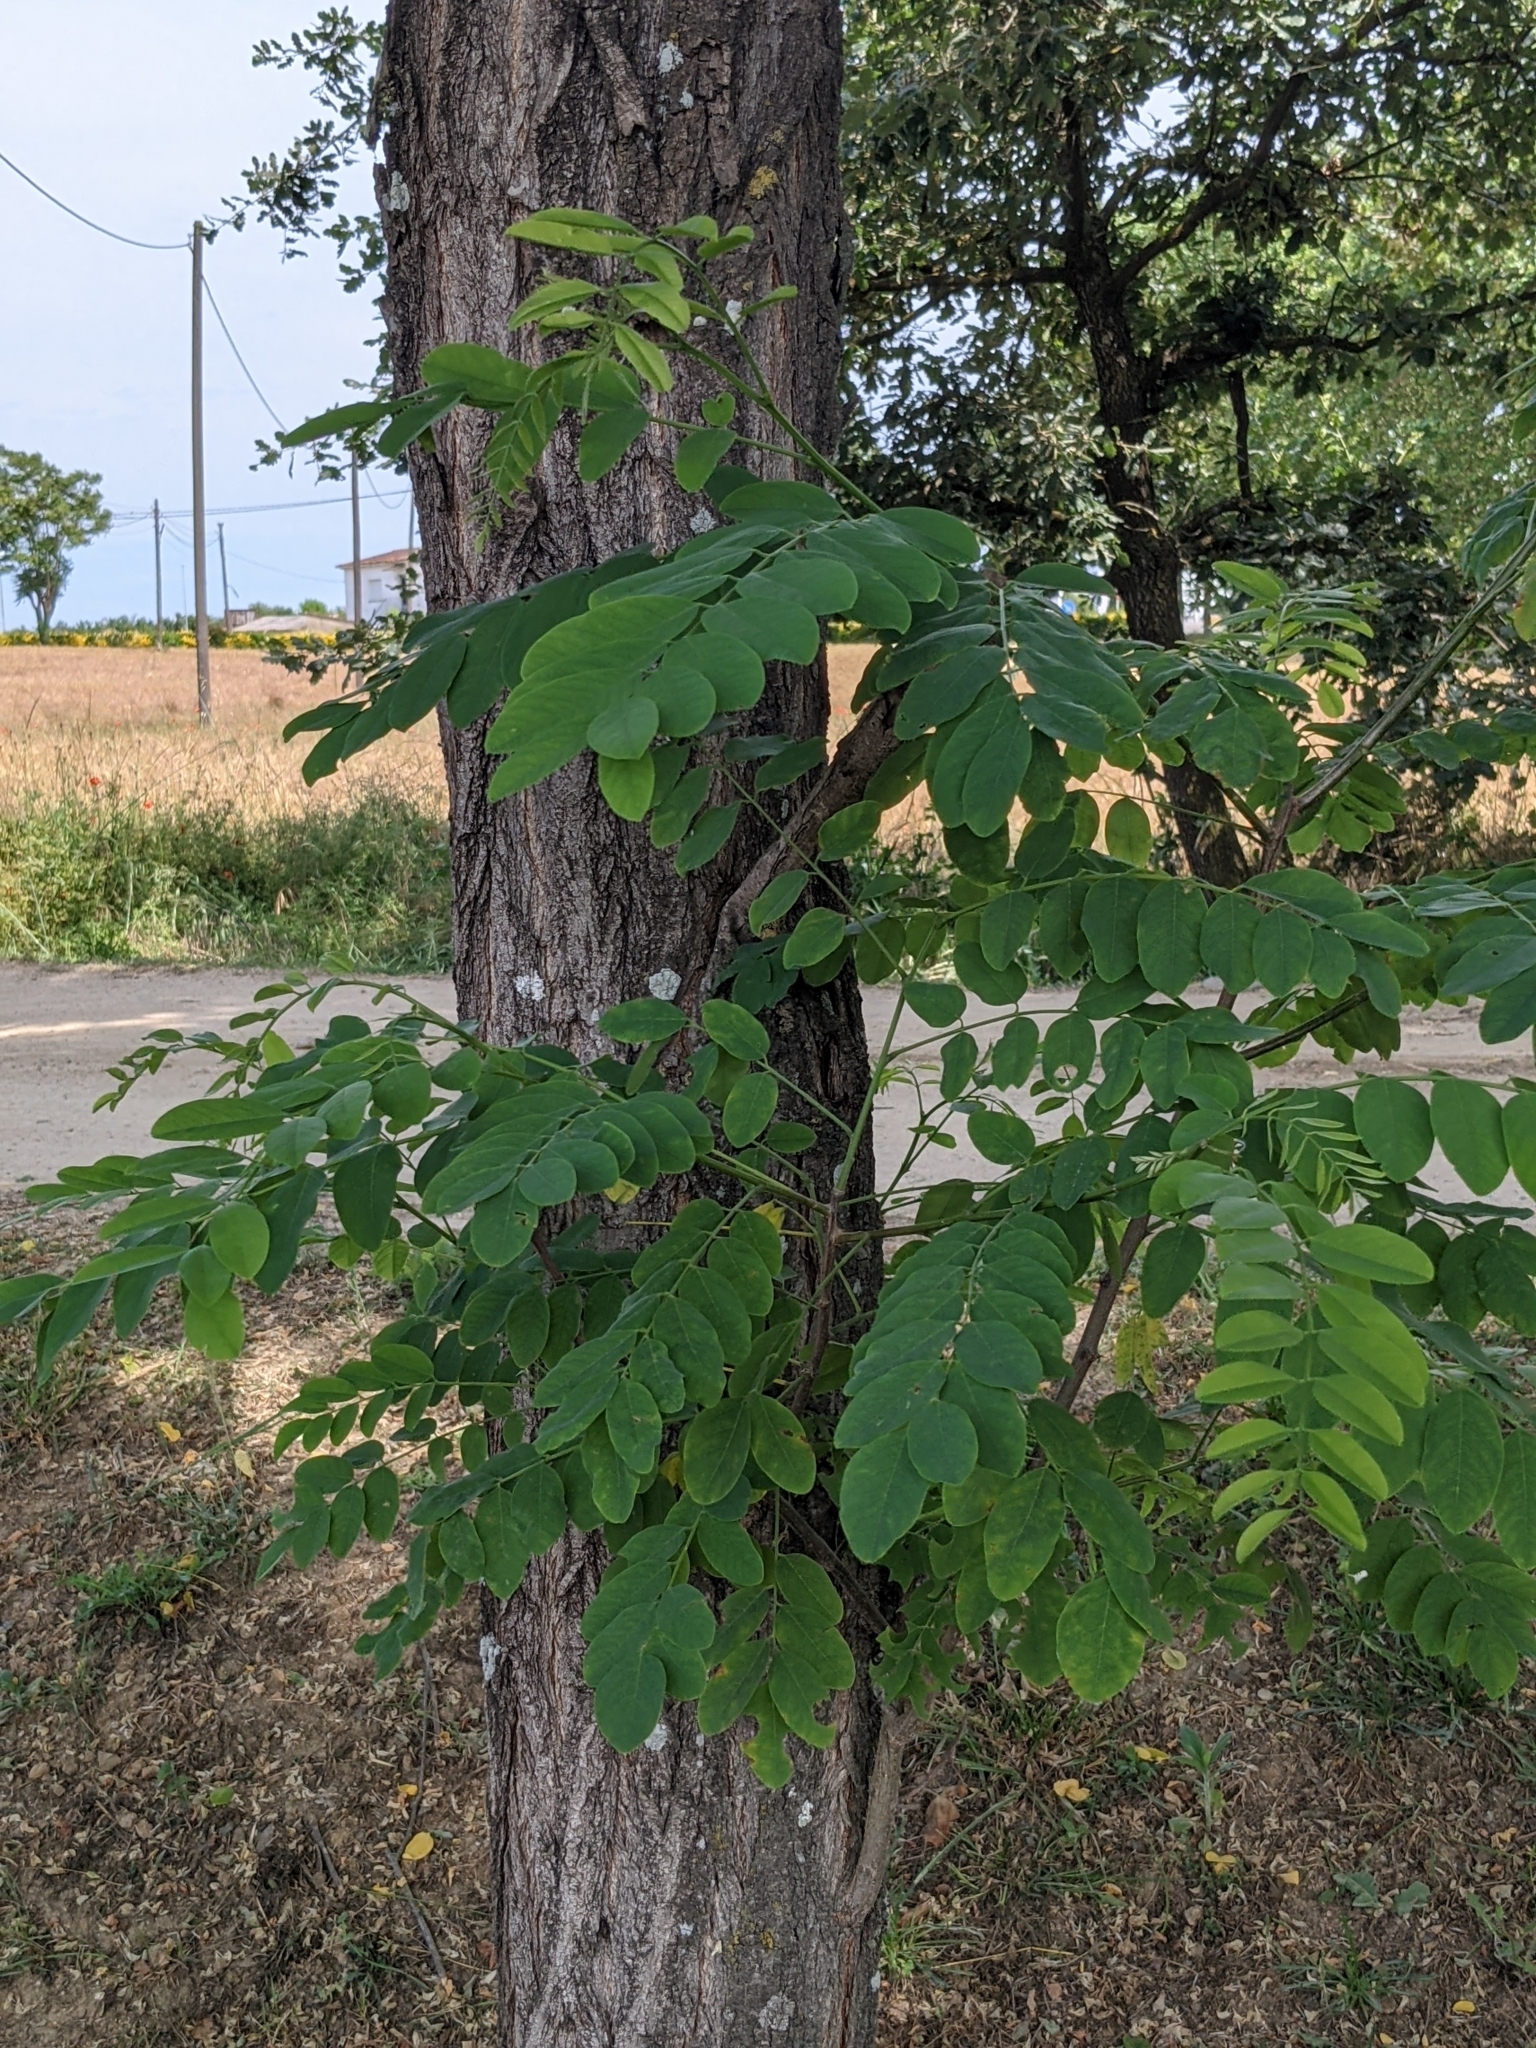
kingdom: Plantae
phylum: Tracheophyta
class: Magnoliopsida
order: Fabales
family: Fabaceae
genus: Robinia
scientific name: Robinia pseudoacacia
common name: Black locust
